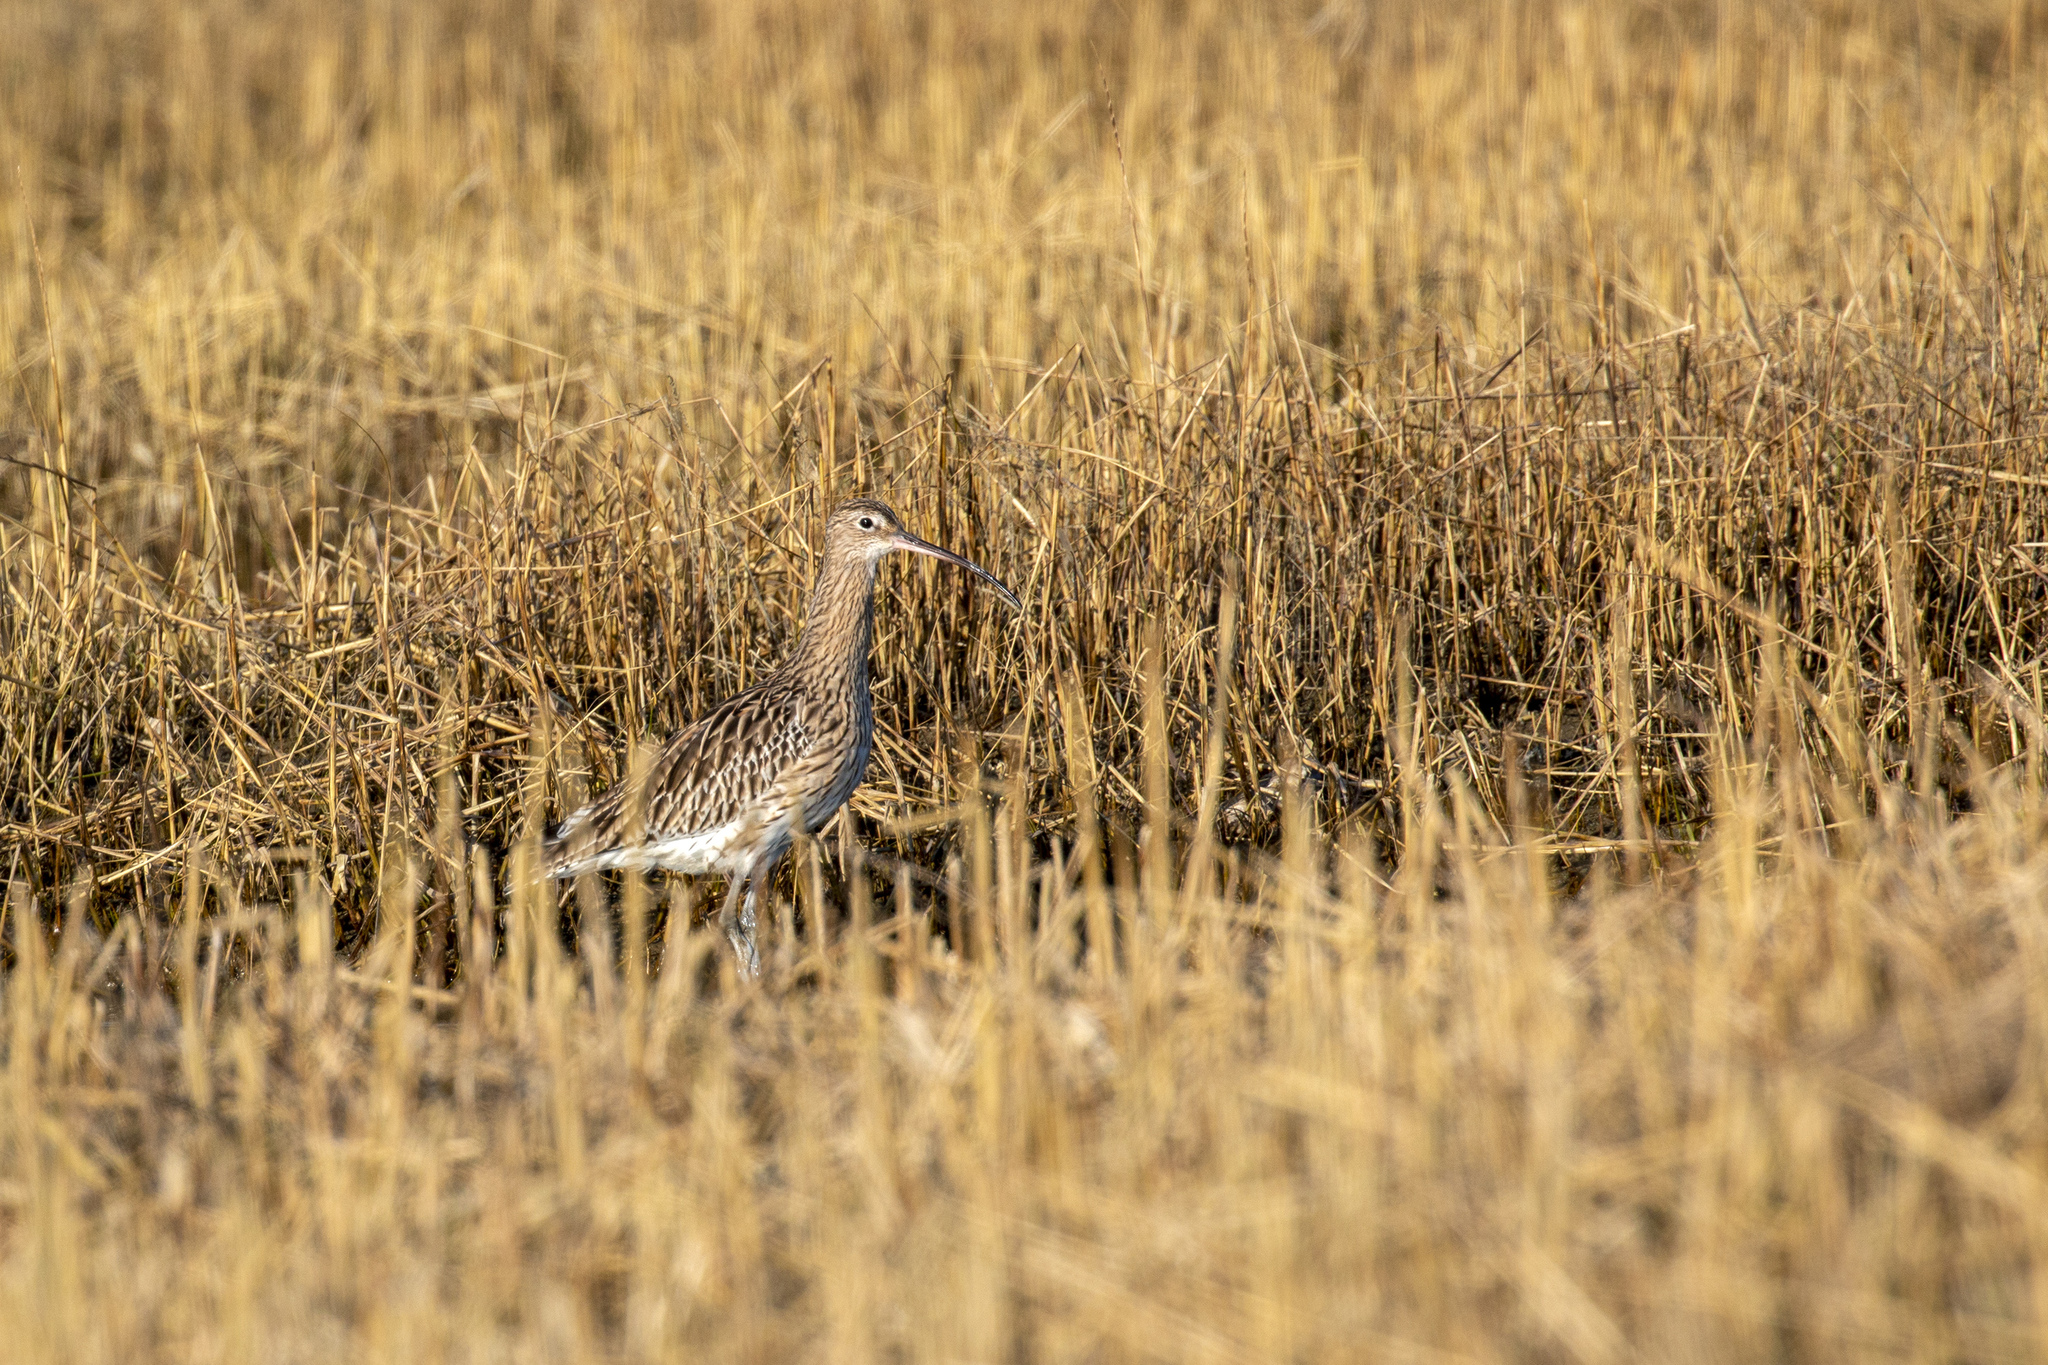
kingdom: Animalia
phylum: Chordata
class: Aves
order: Charadriiformes
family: Scolopacidae
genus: Numenius
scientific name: Numenius arquata
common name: Eurasian curlew
